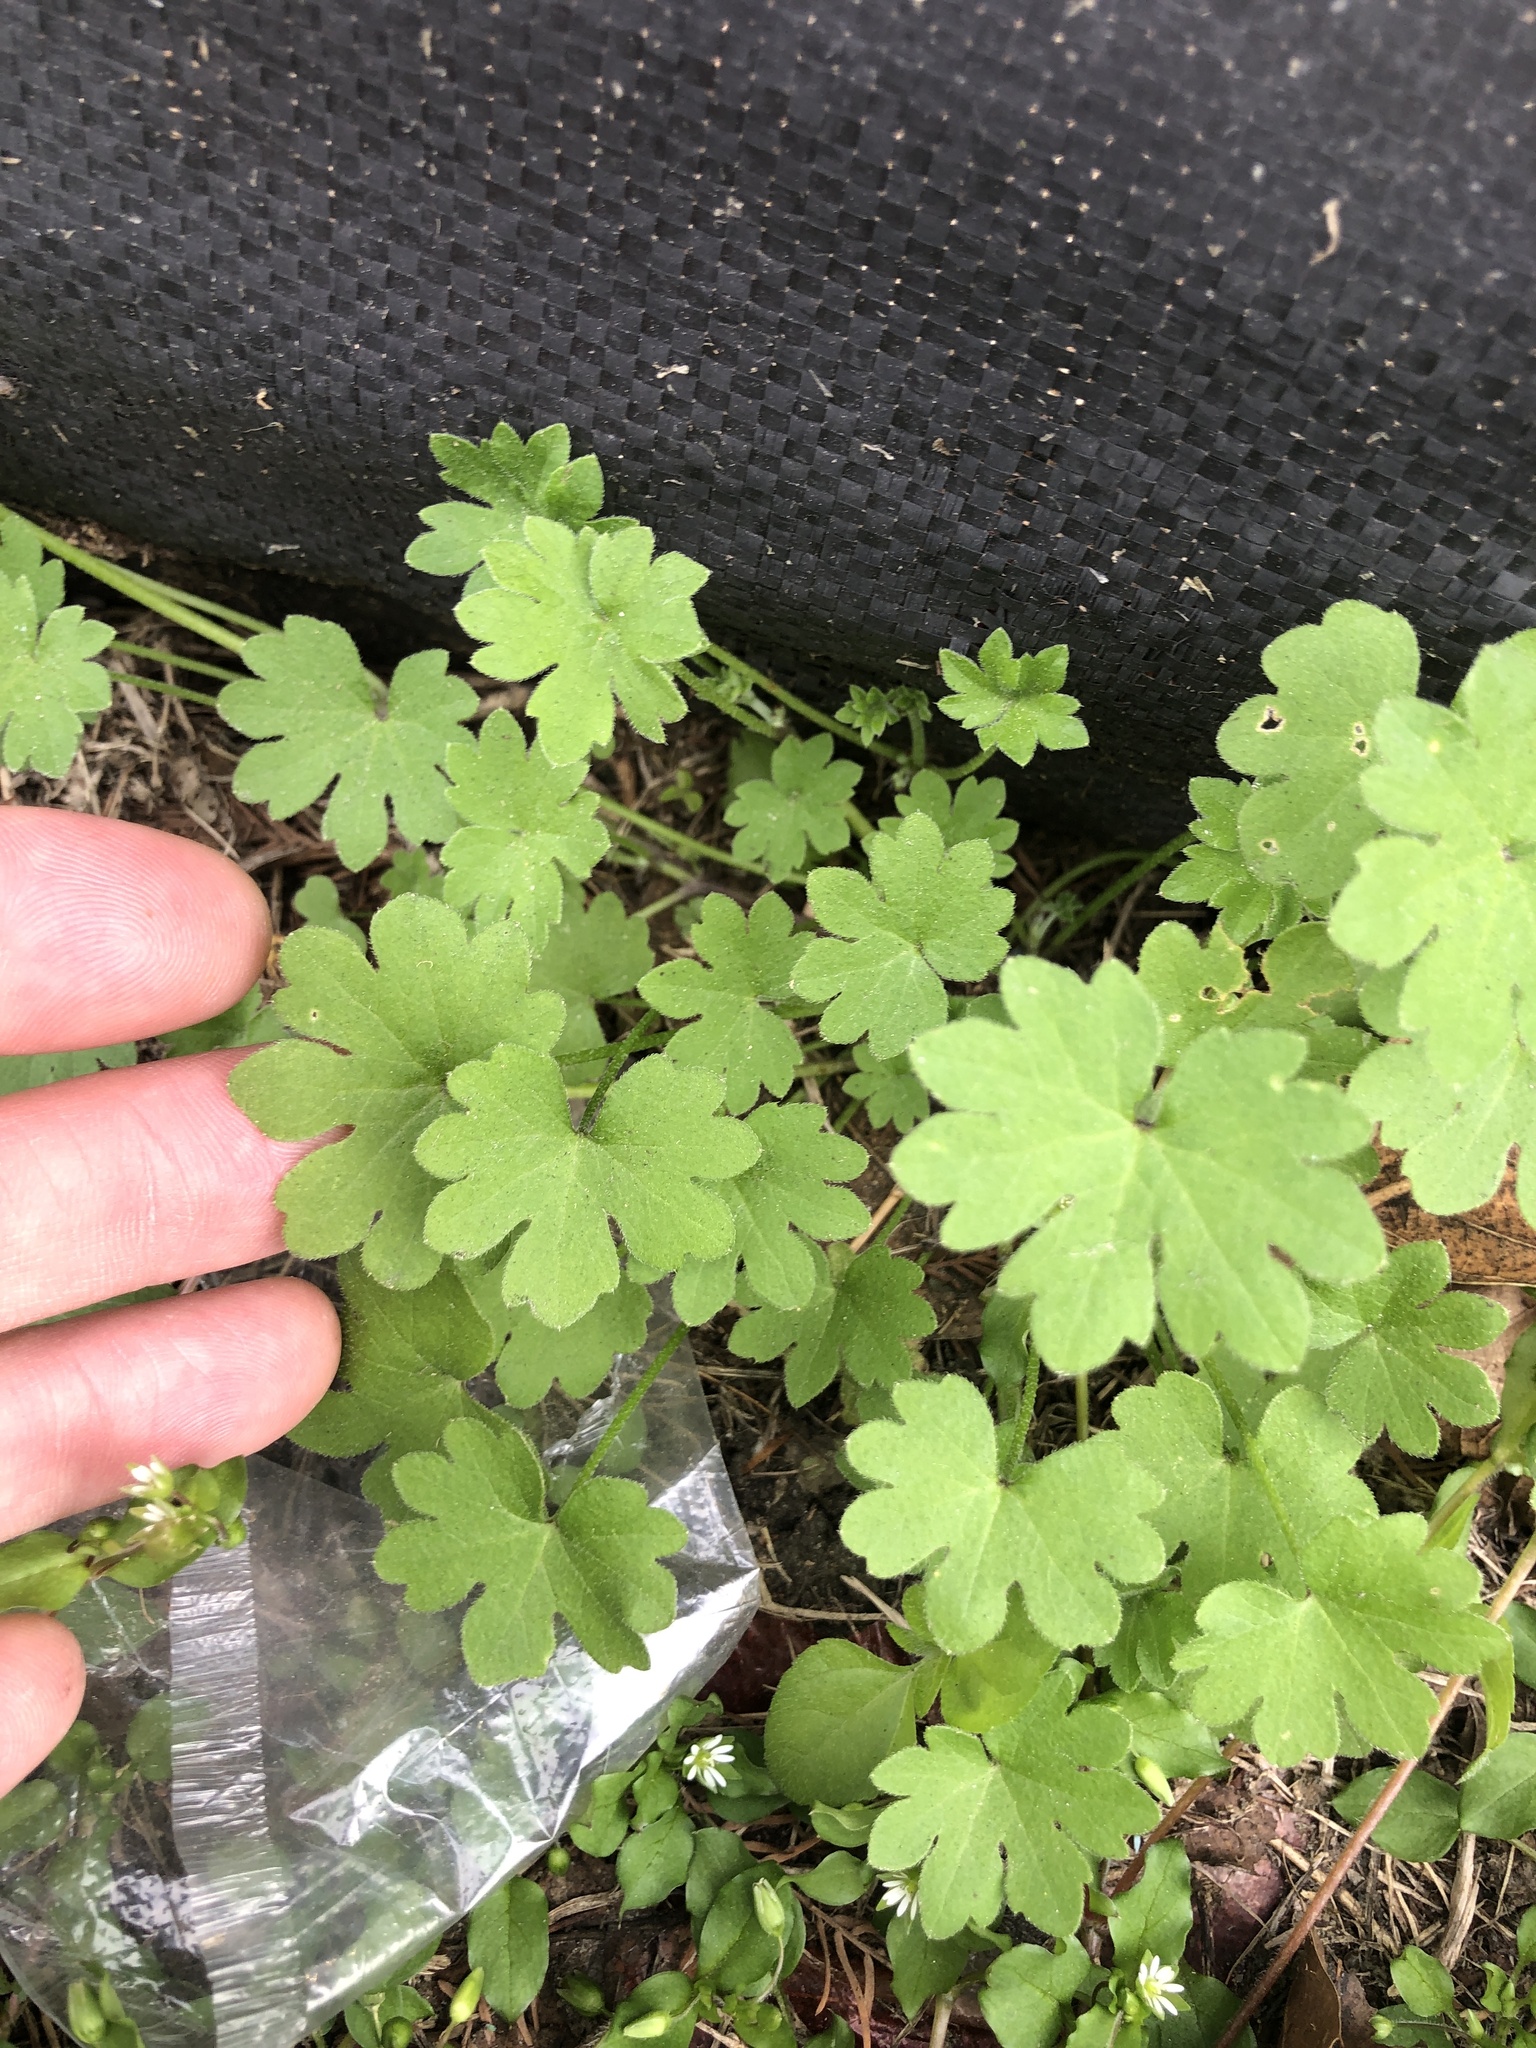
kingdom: Plantae
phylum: Tracheophyta
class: Magnoliopsida
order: Apiales
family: Apiaceae
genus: Bowlesia
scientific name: Bowlesia incana
